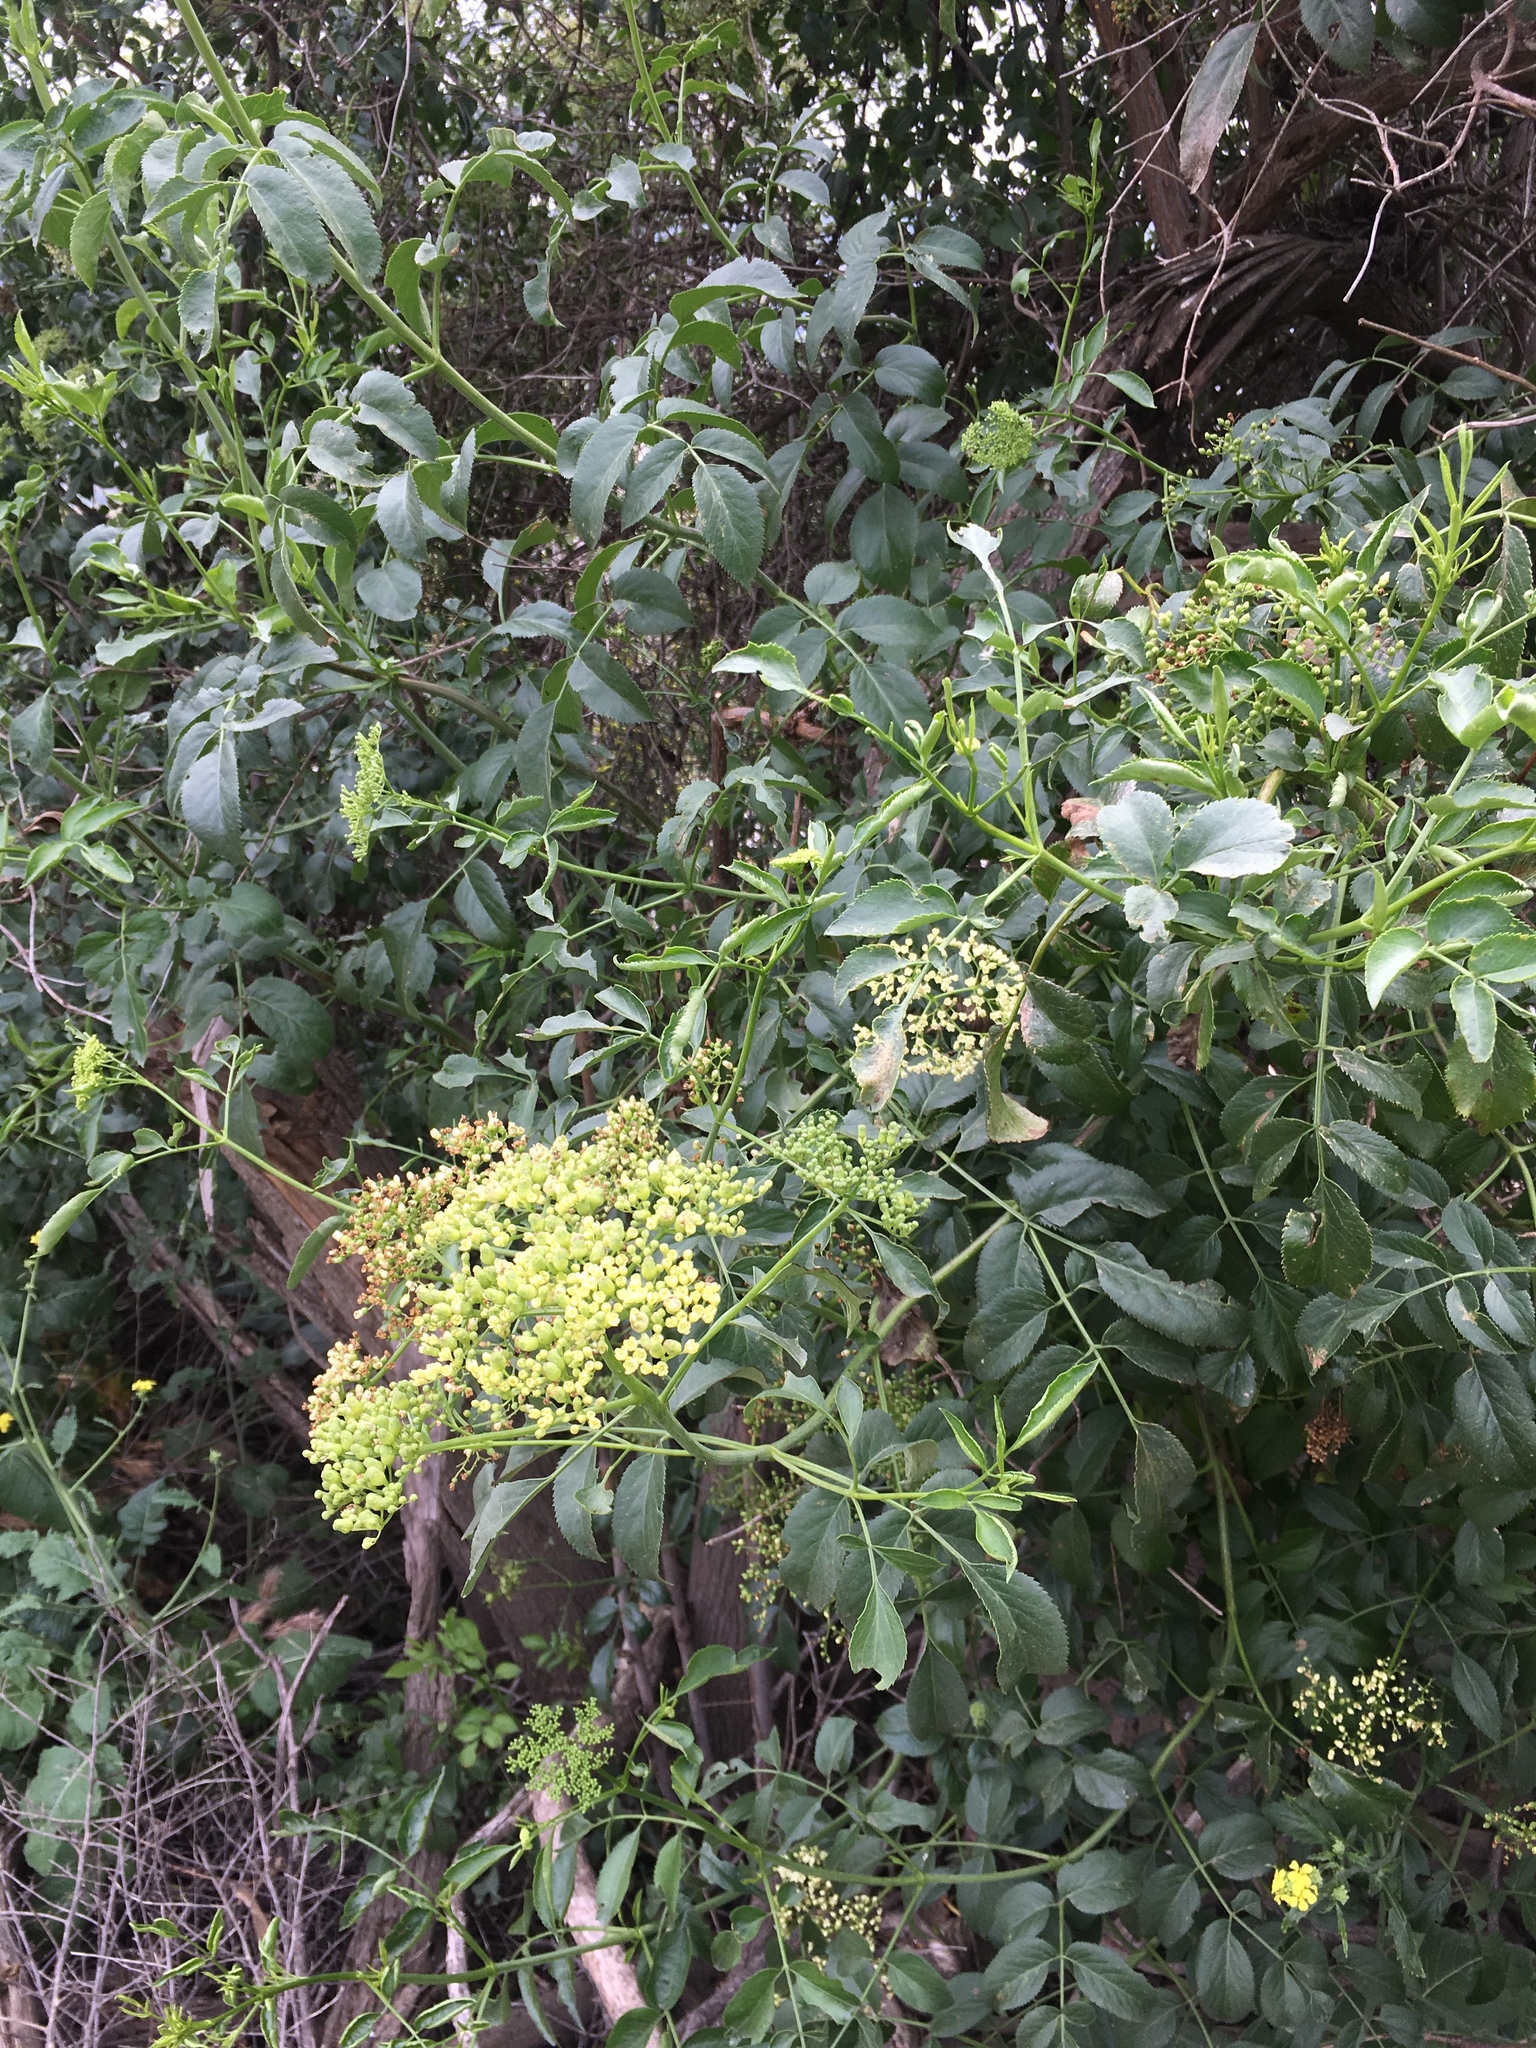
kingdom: Plantae
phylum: Tracheophyta
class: Magnoliopsida
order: Dipsacales
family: Viburnaceae
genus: Sambucus
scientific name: Sambucus cerulea
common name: Blue elder
